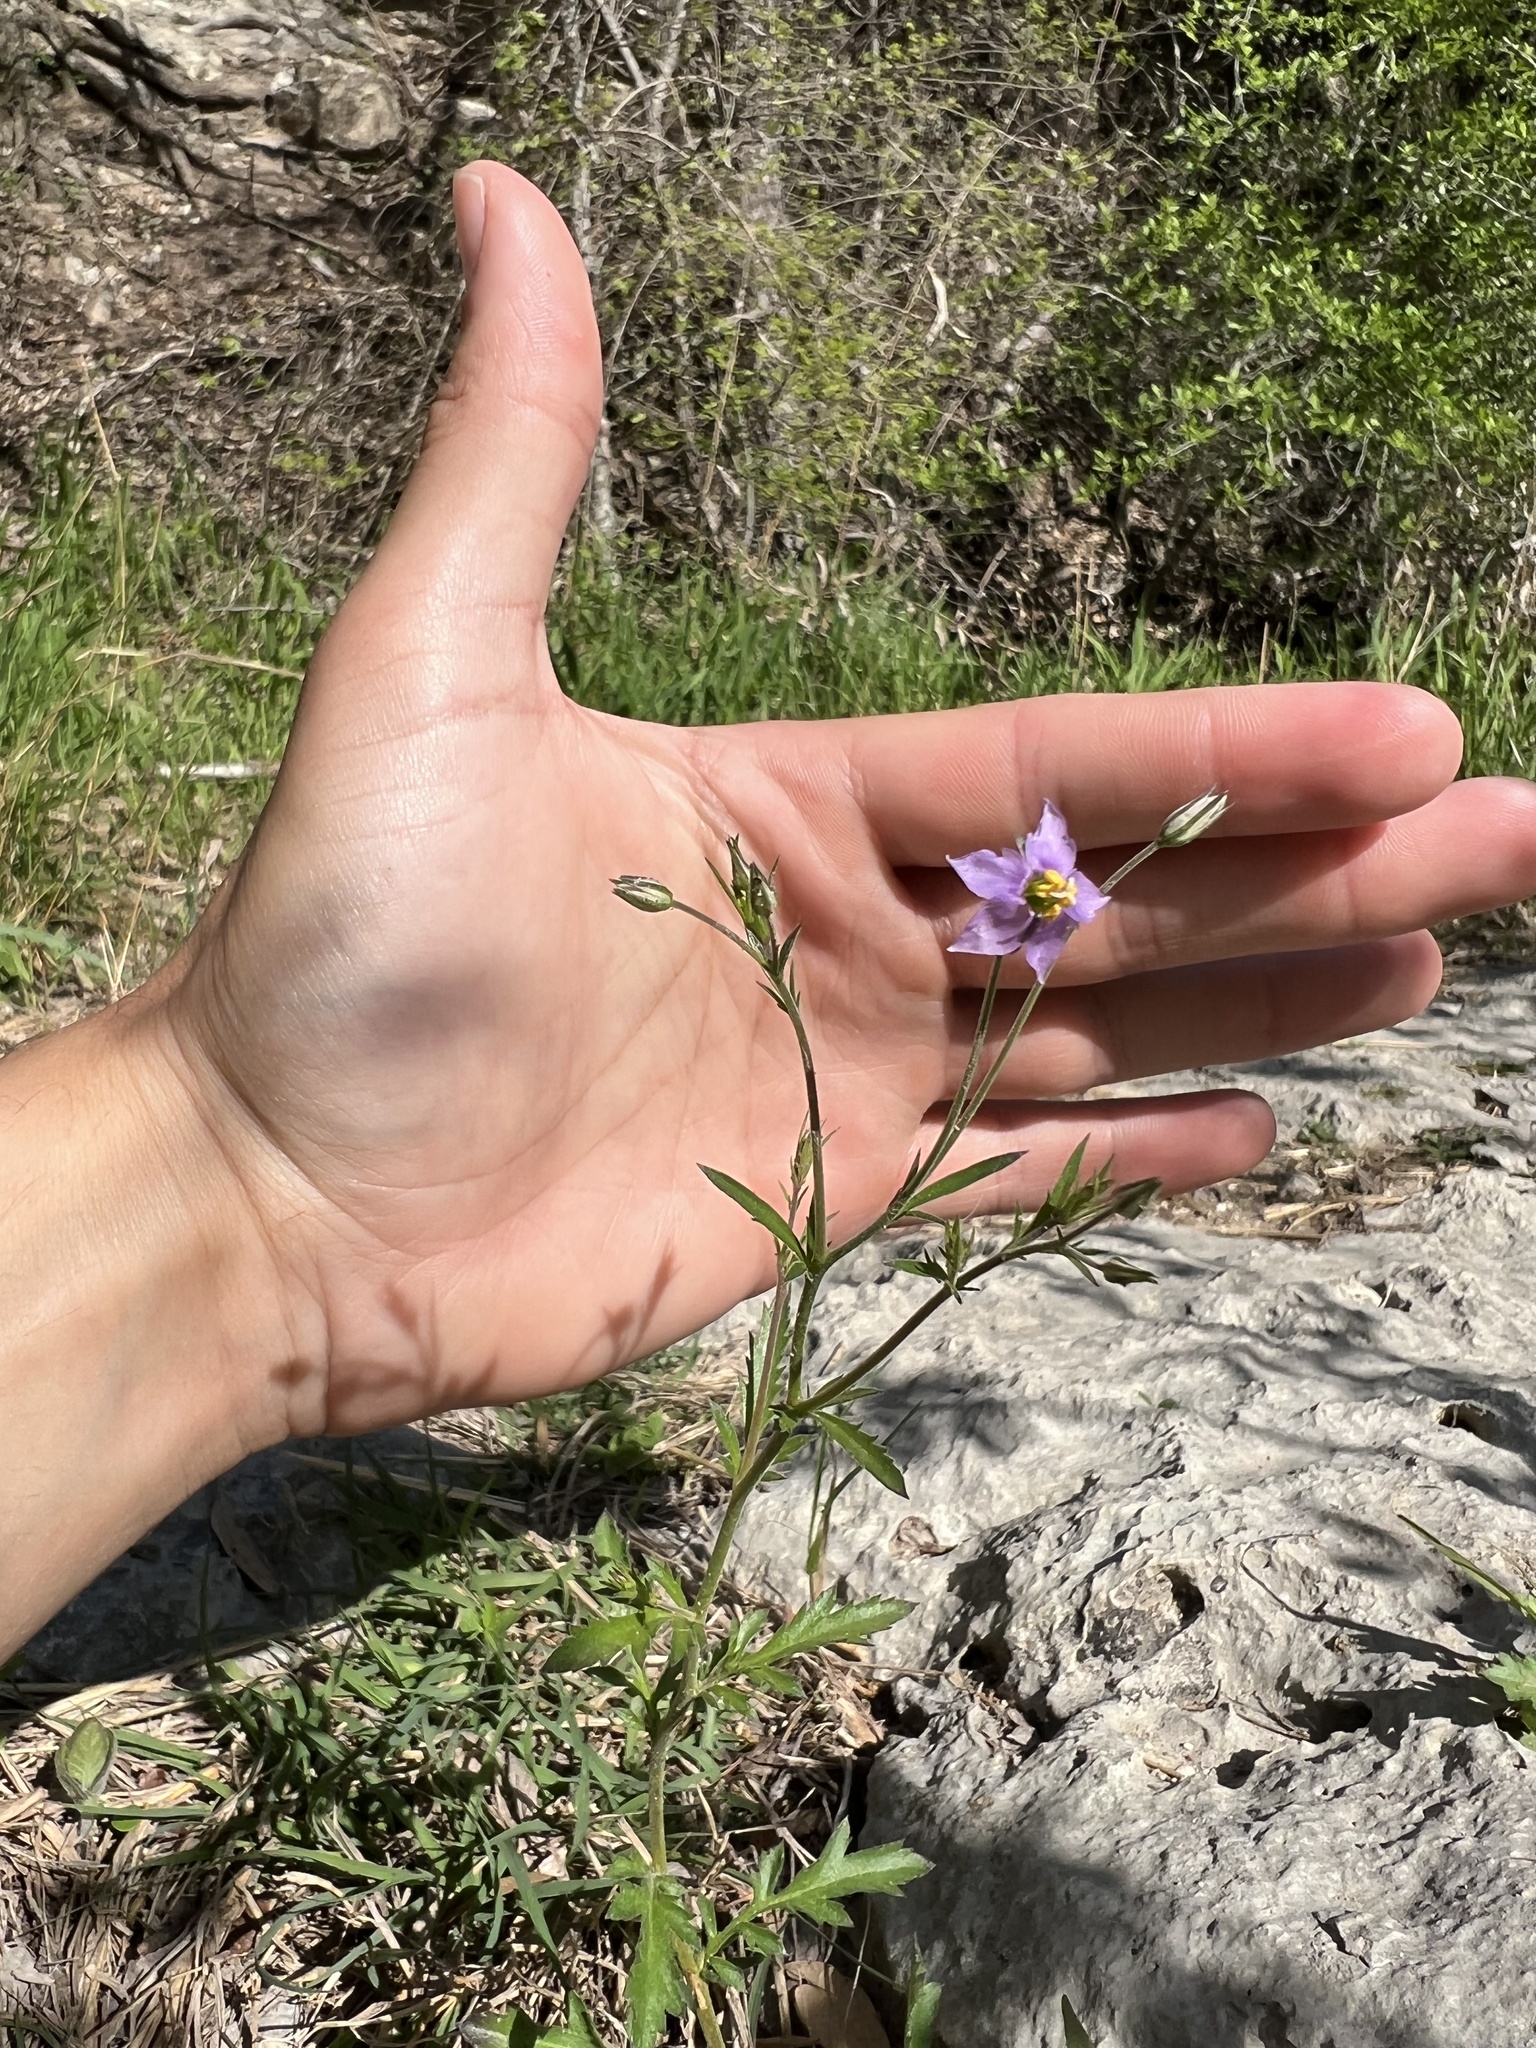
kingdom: Plantae
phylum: Tracheophyta
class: Magnoliopsida
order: Ericales
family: Polemoniaceae
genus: Giliastrum
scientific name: Giliastrum incisum
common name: Splitleaf gilia
